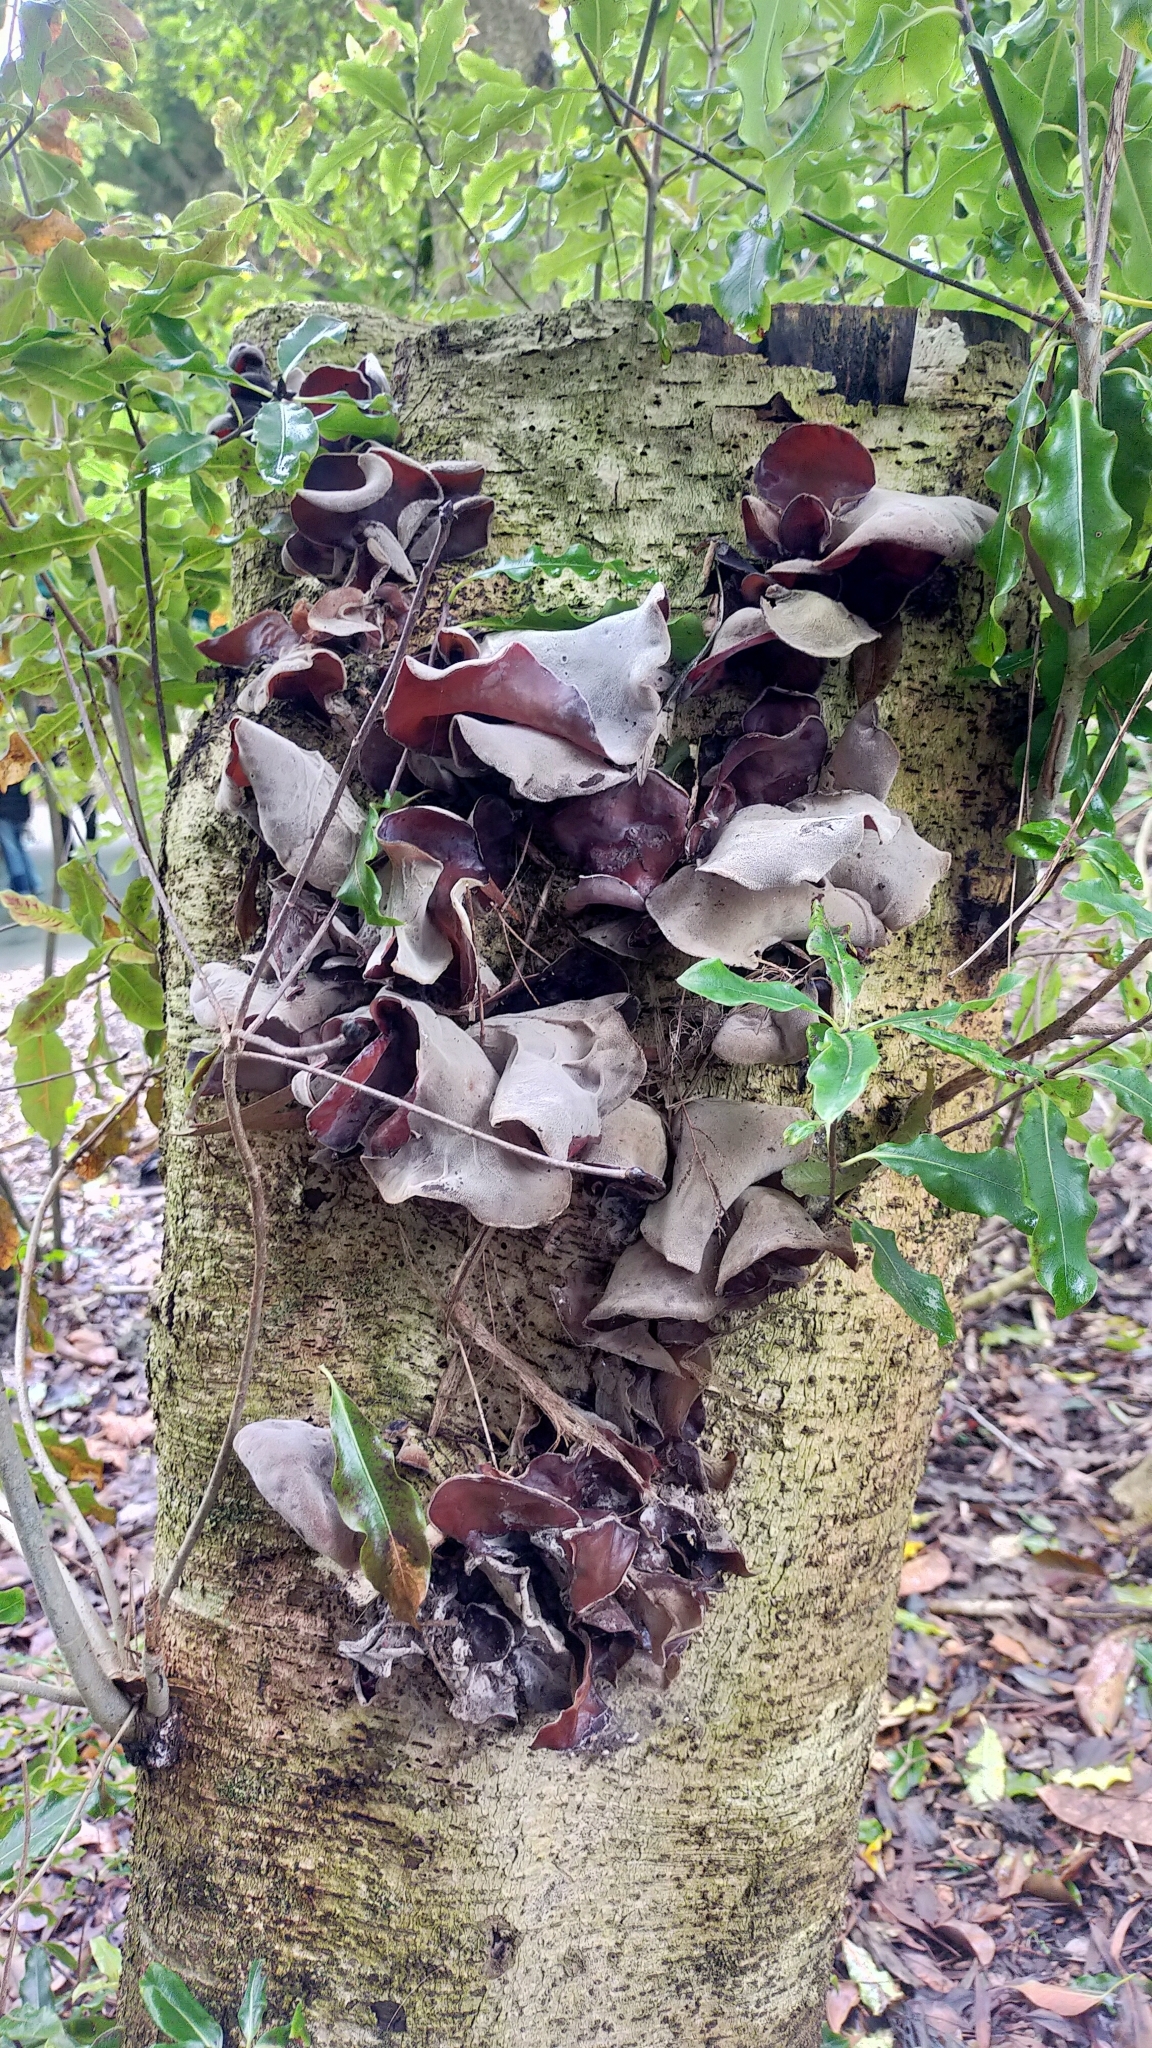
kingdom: Fungi
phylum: Basidiomycota
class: Agaricomycetes
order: Auriculariales
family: Auriculariaceae
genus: Auricularia
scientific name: Auricularia cornea
